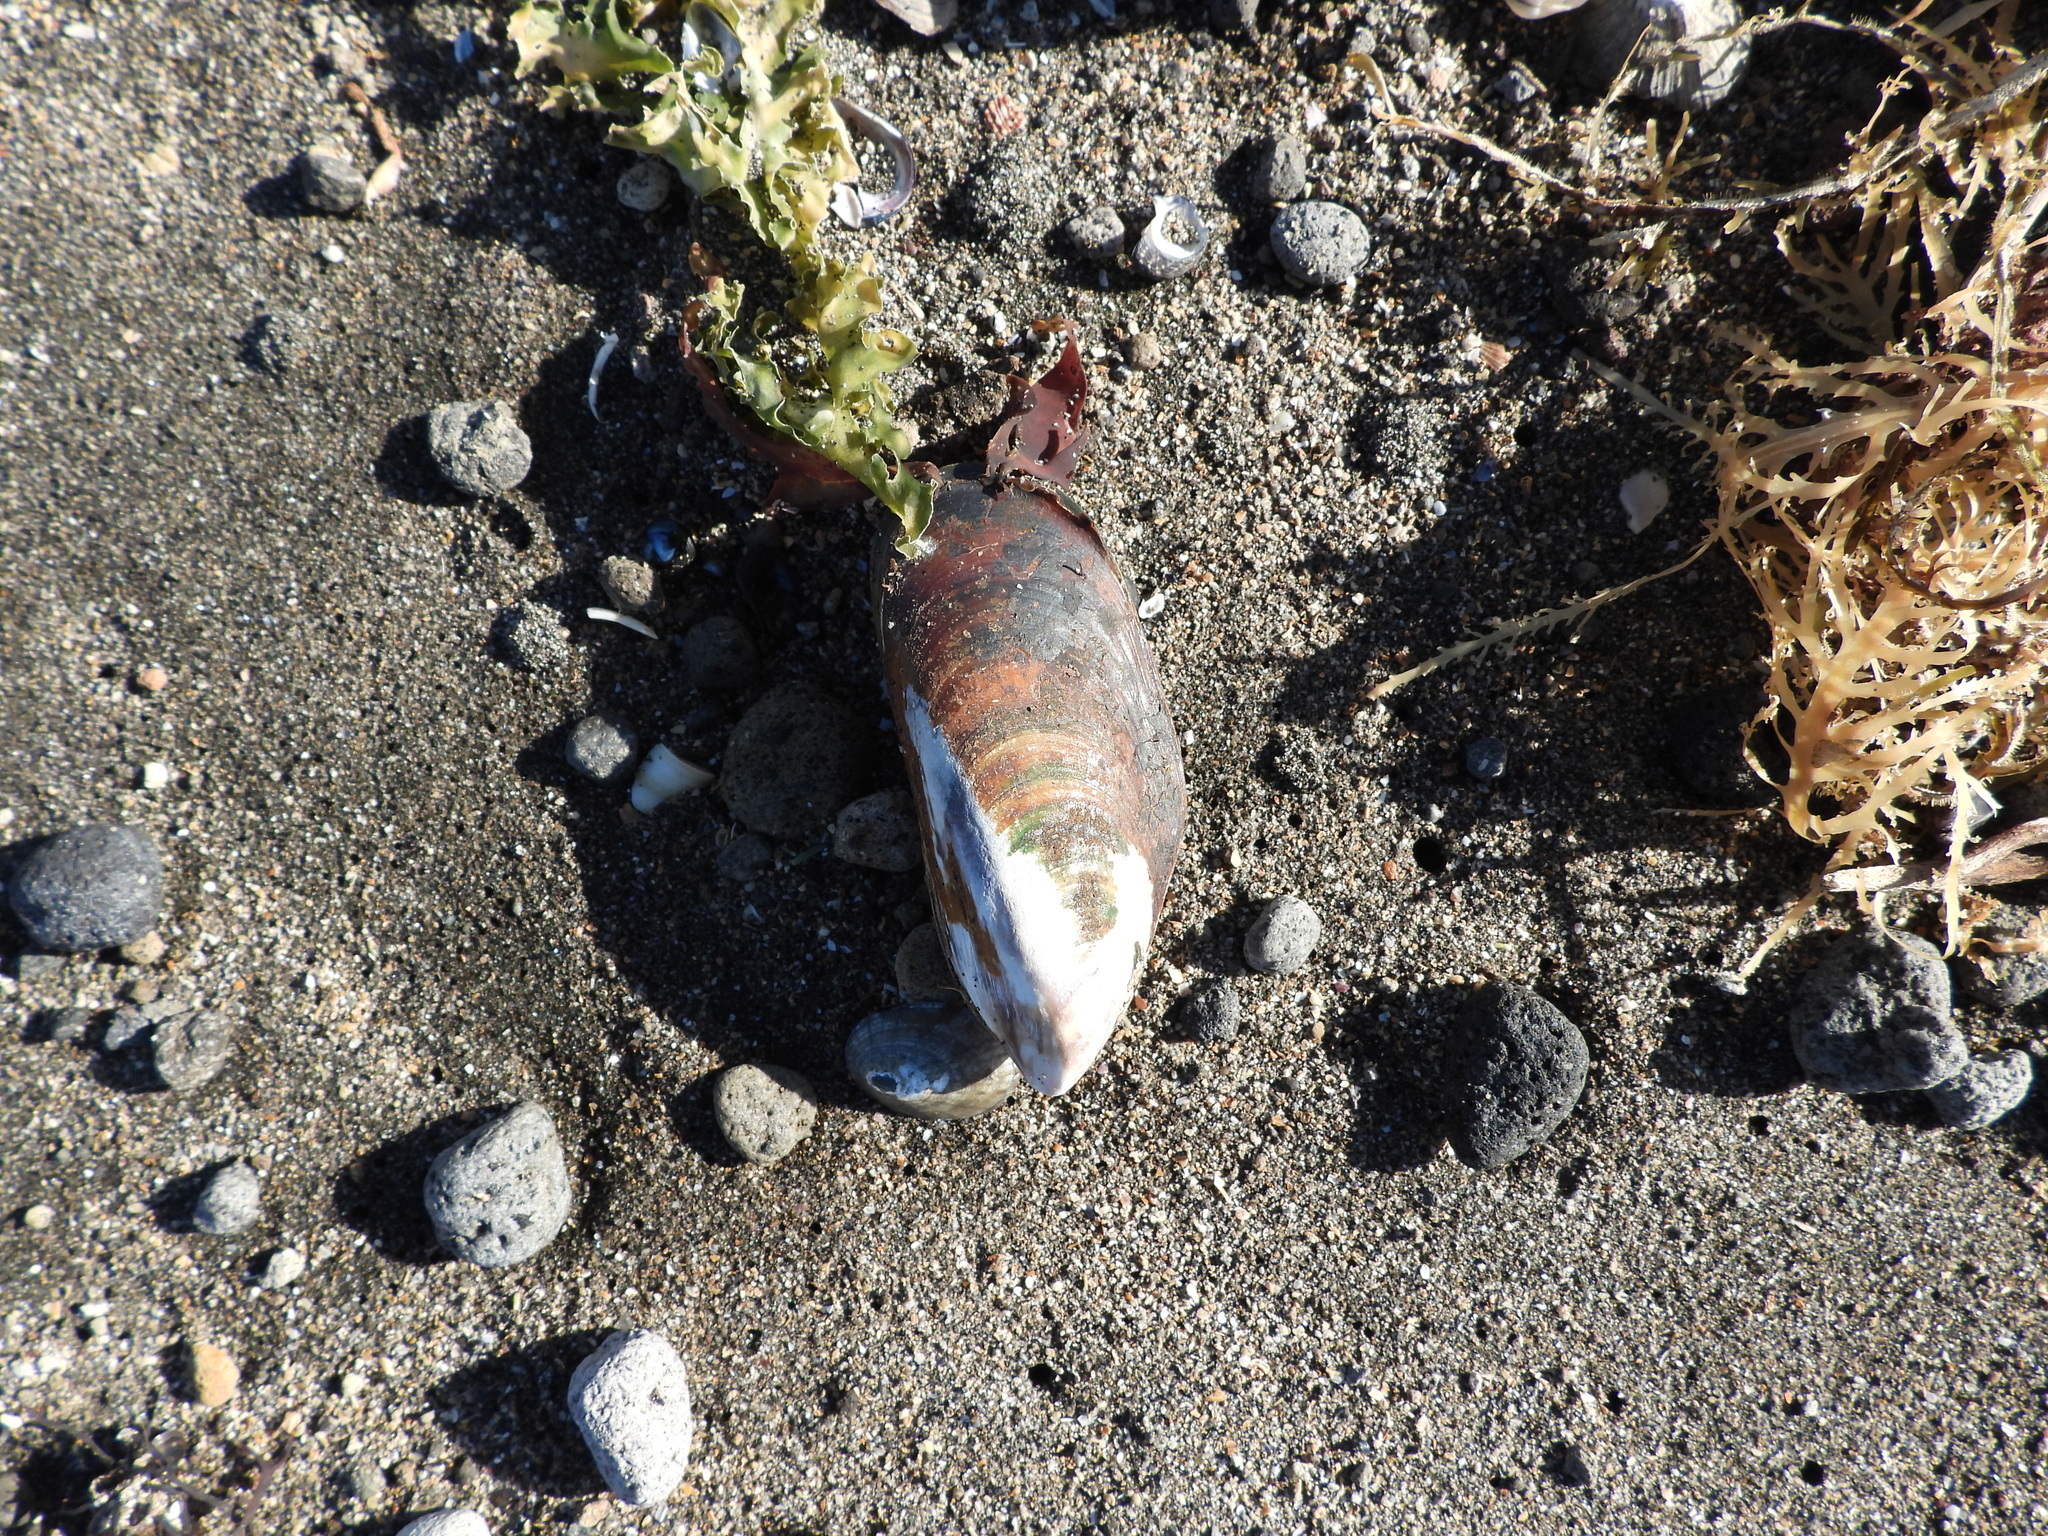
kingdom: Animalia
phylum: Mollusca
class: Bivalvia
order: Mytilida
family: Mytilidae
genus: Perna
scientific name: Perna canaliculus
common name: New zealand greenshelltm
